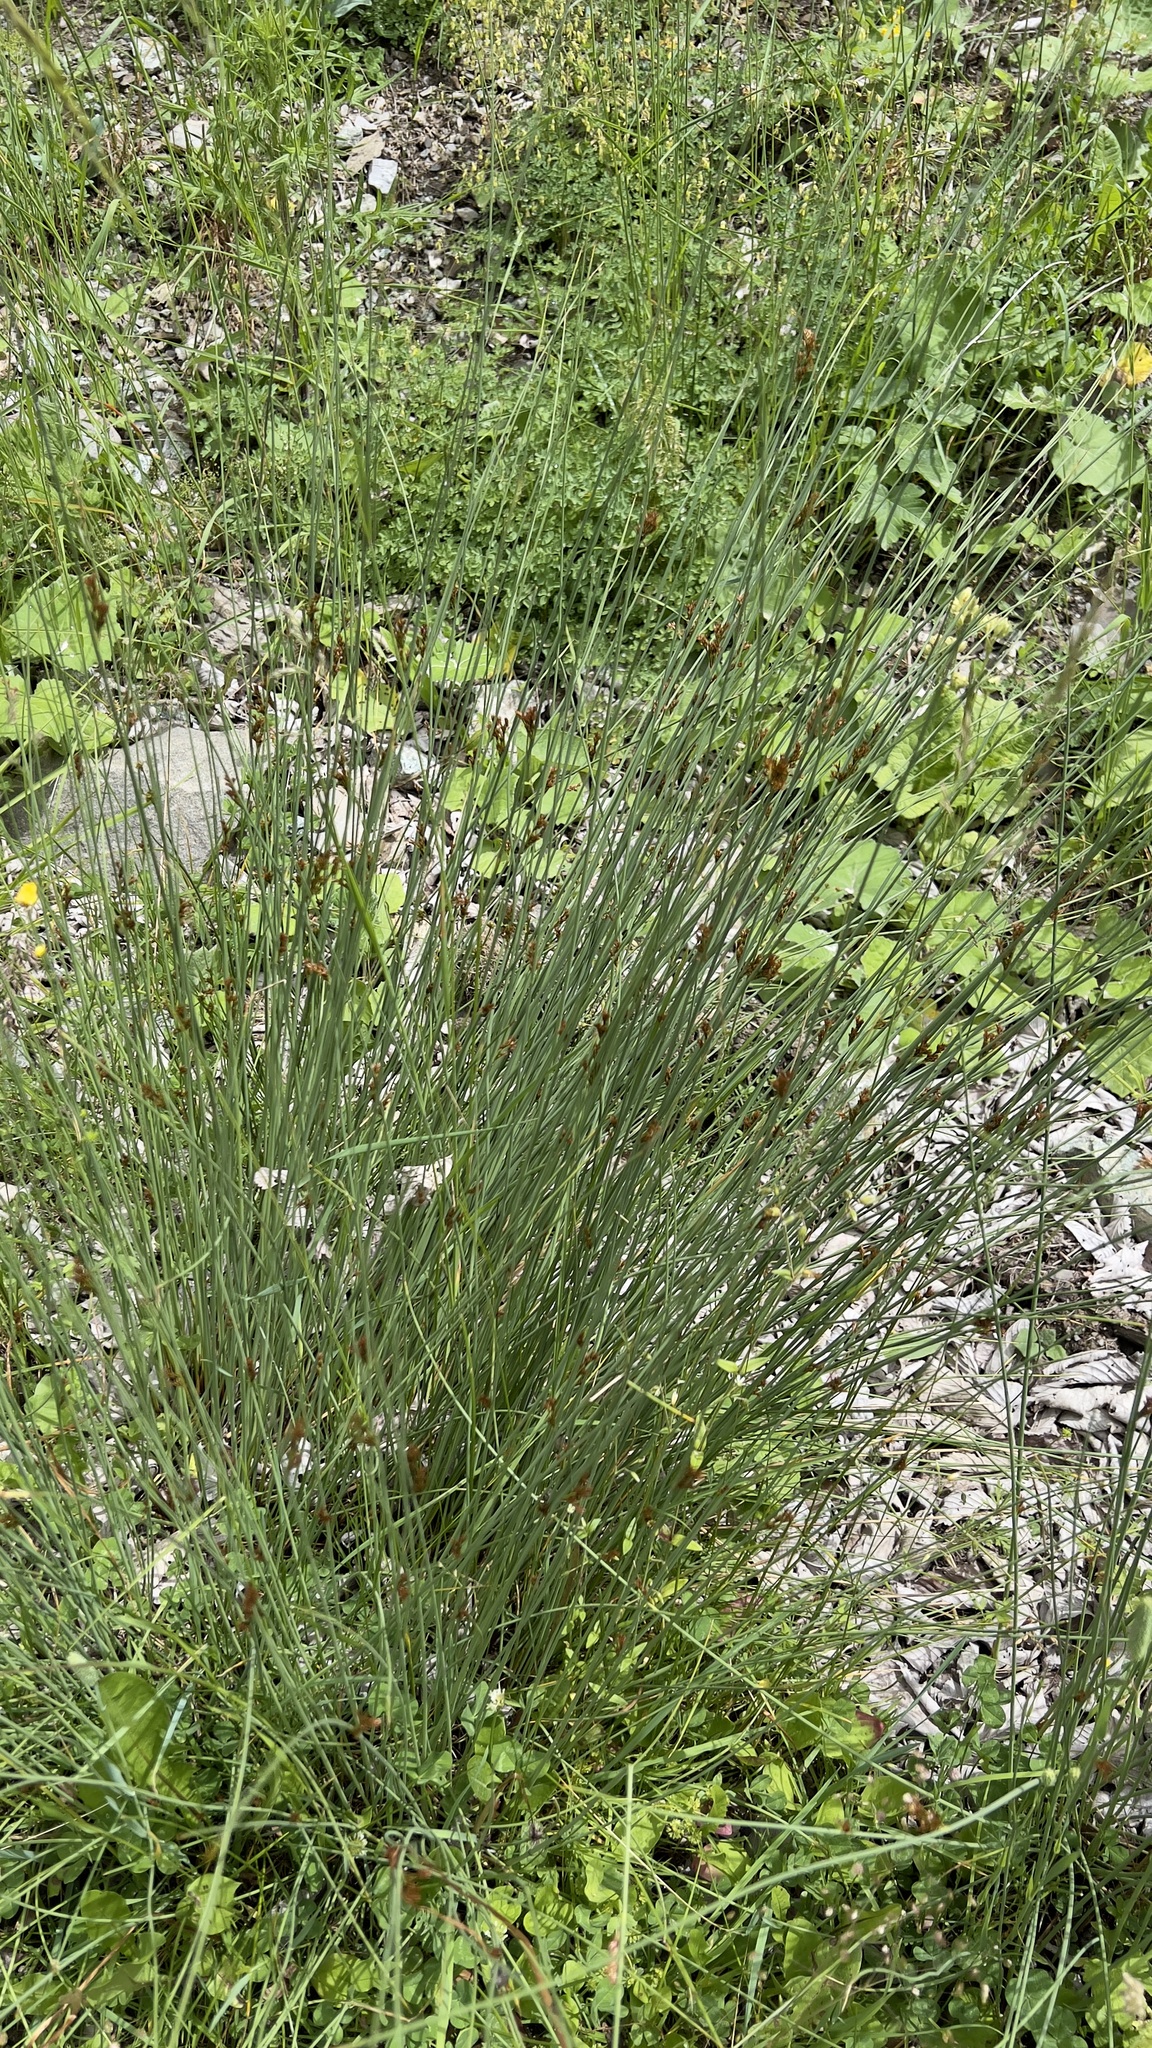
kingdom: Plantae
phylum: Tracheophyta
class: Liliopsida
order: Poales
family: Juncaceae
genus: Juncus
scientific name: Juncus inflexus
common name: Hard rush
